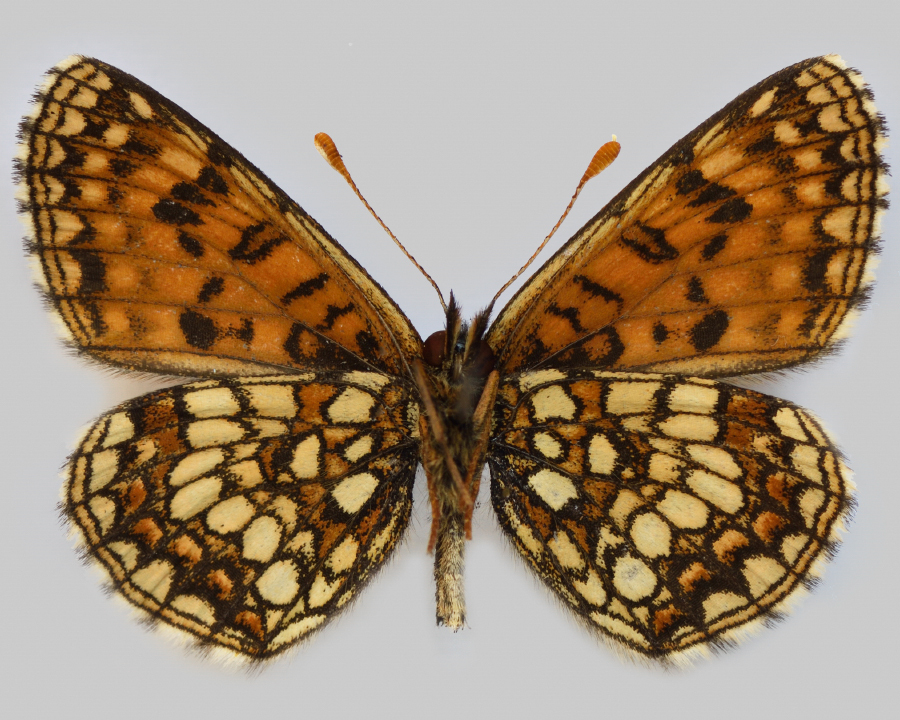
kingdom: Animalia
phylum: Arthropoda
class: Insecta
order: Lepidoptera
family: Nymphalidae
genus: Mellicta
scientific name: Mellicta britomartis
